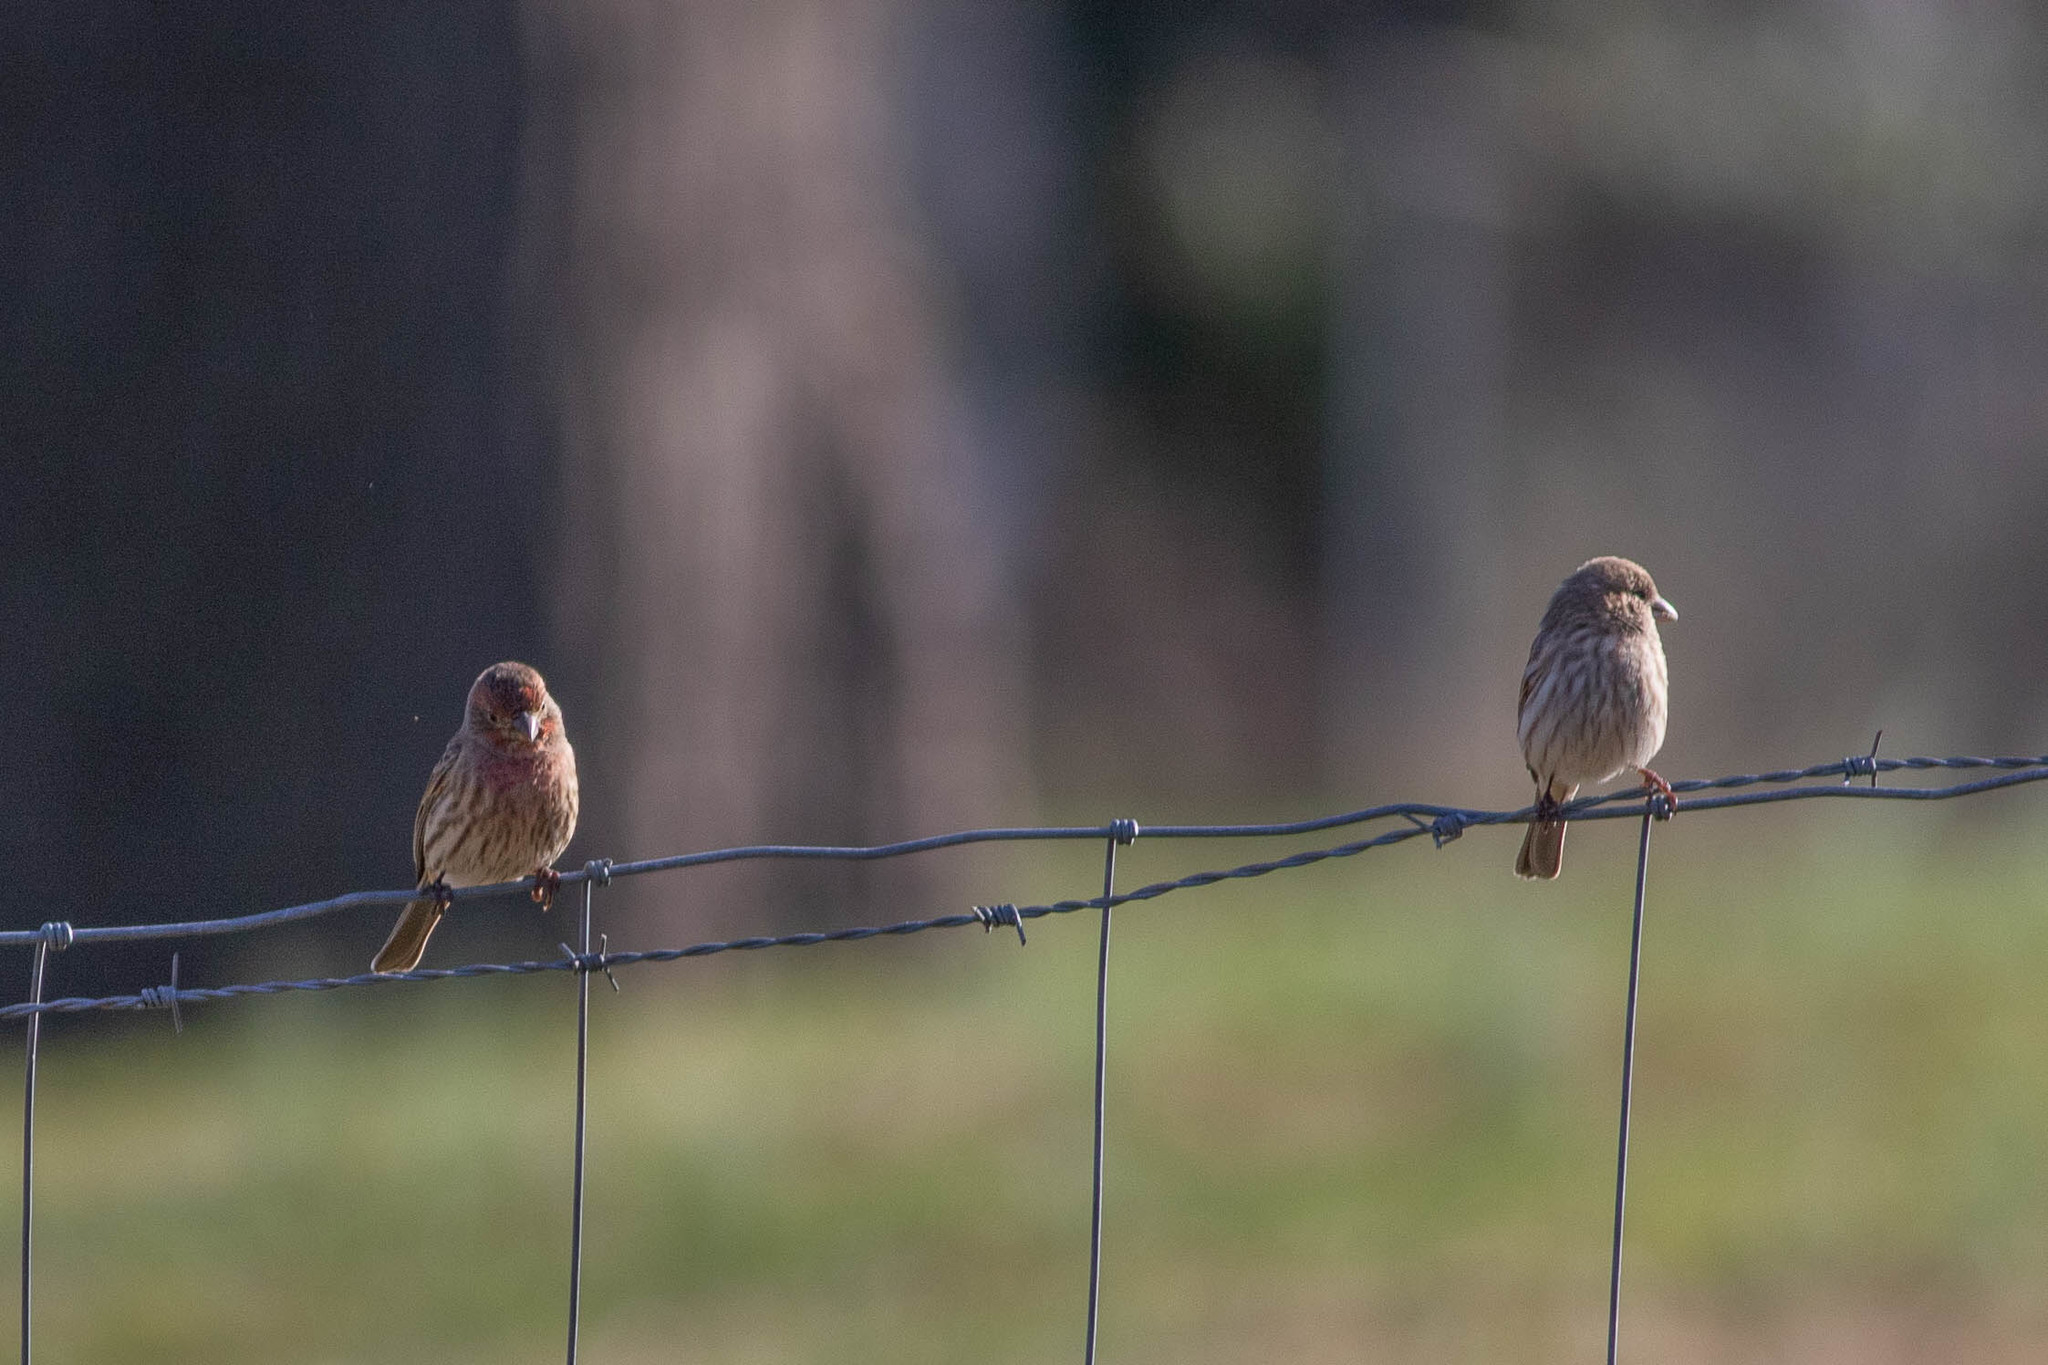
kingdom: Animalia
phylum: Chordata
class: Aves
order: Passeriformes
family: Fringillidae
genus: Haemorhous
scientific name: Haemorhous mexicanus
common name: House finch
